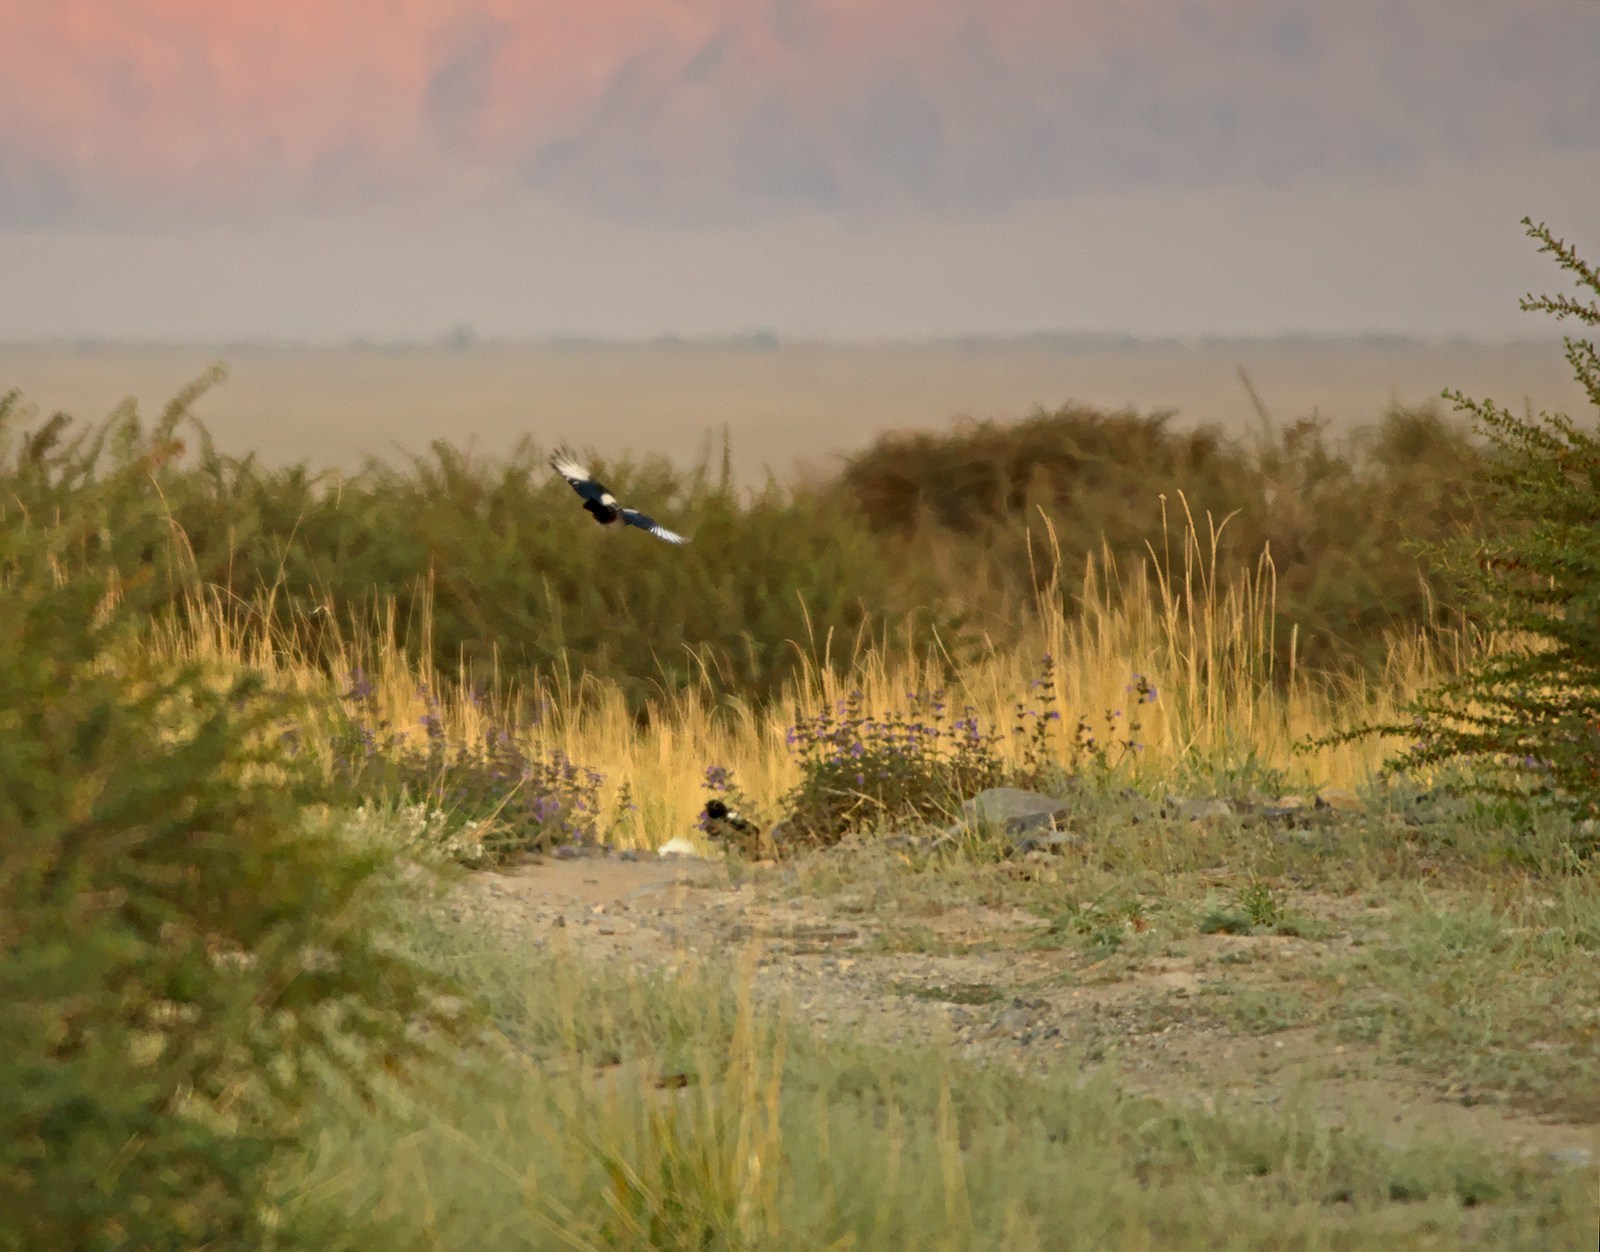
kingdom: Animalia
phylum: Chordata
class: Aves
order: Passeriformes
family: Corvidae
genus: Pica
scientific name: Pica pica
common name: Eurasian magpie
